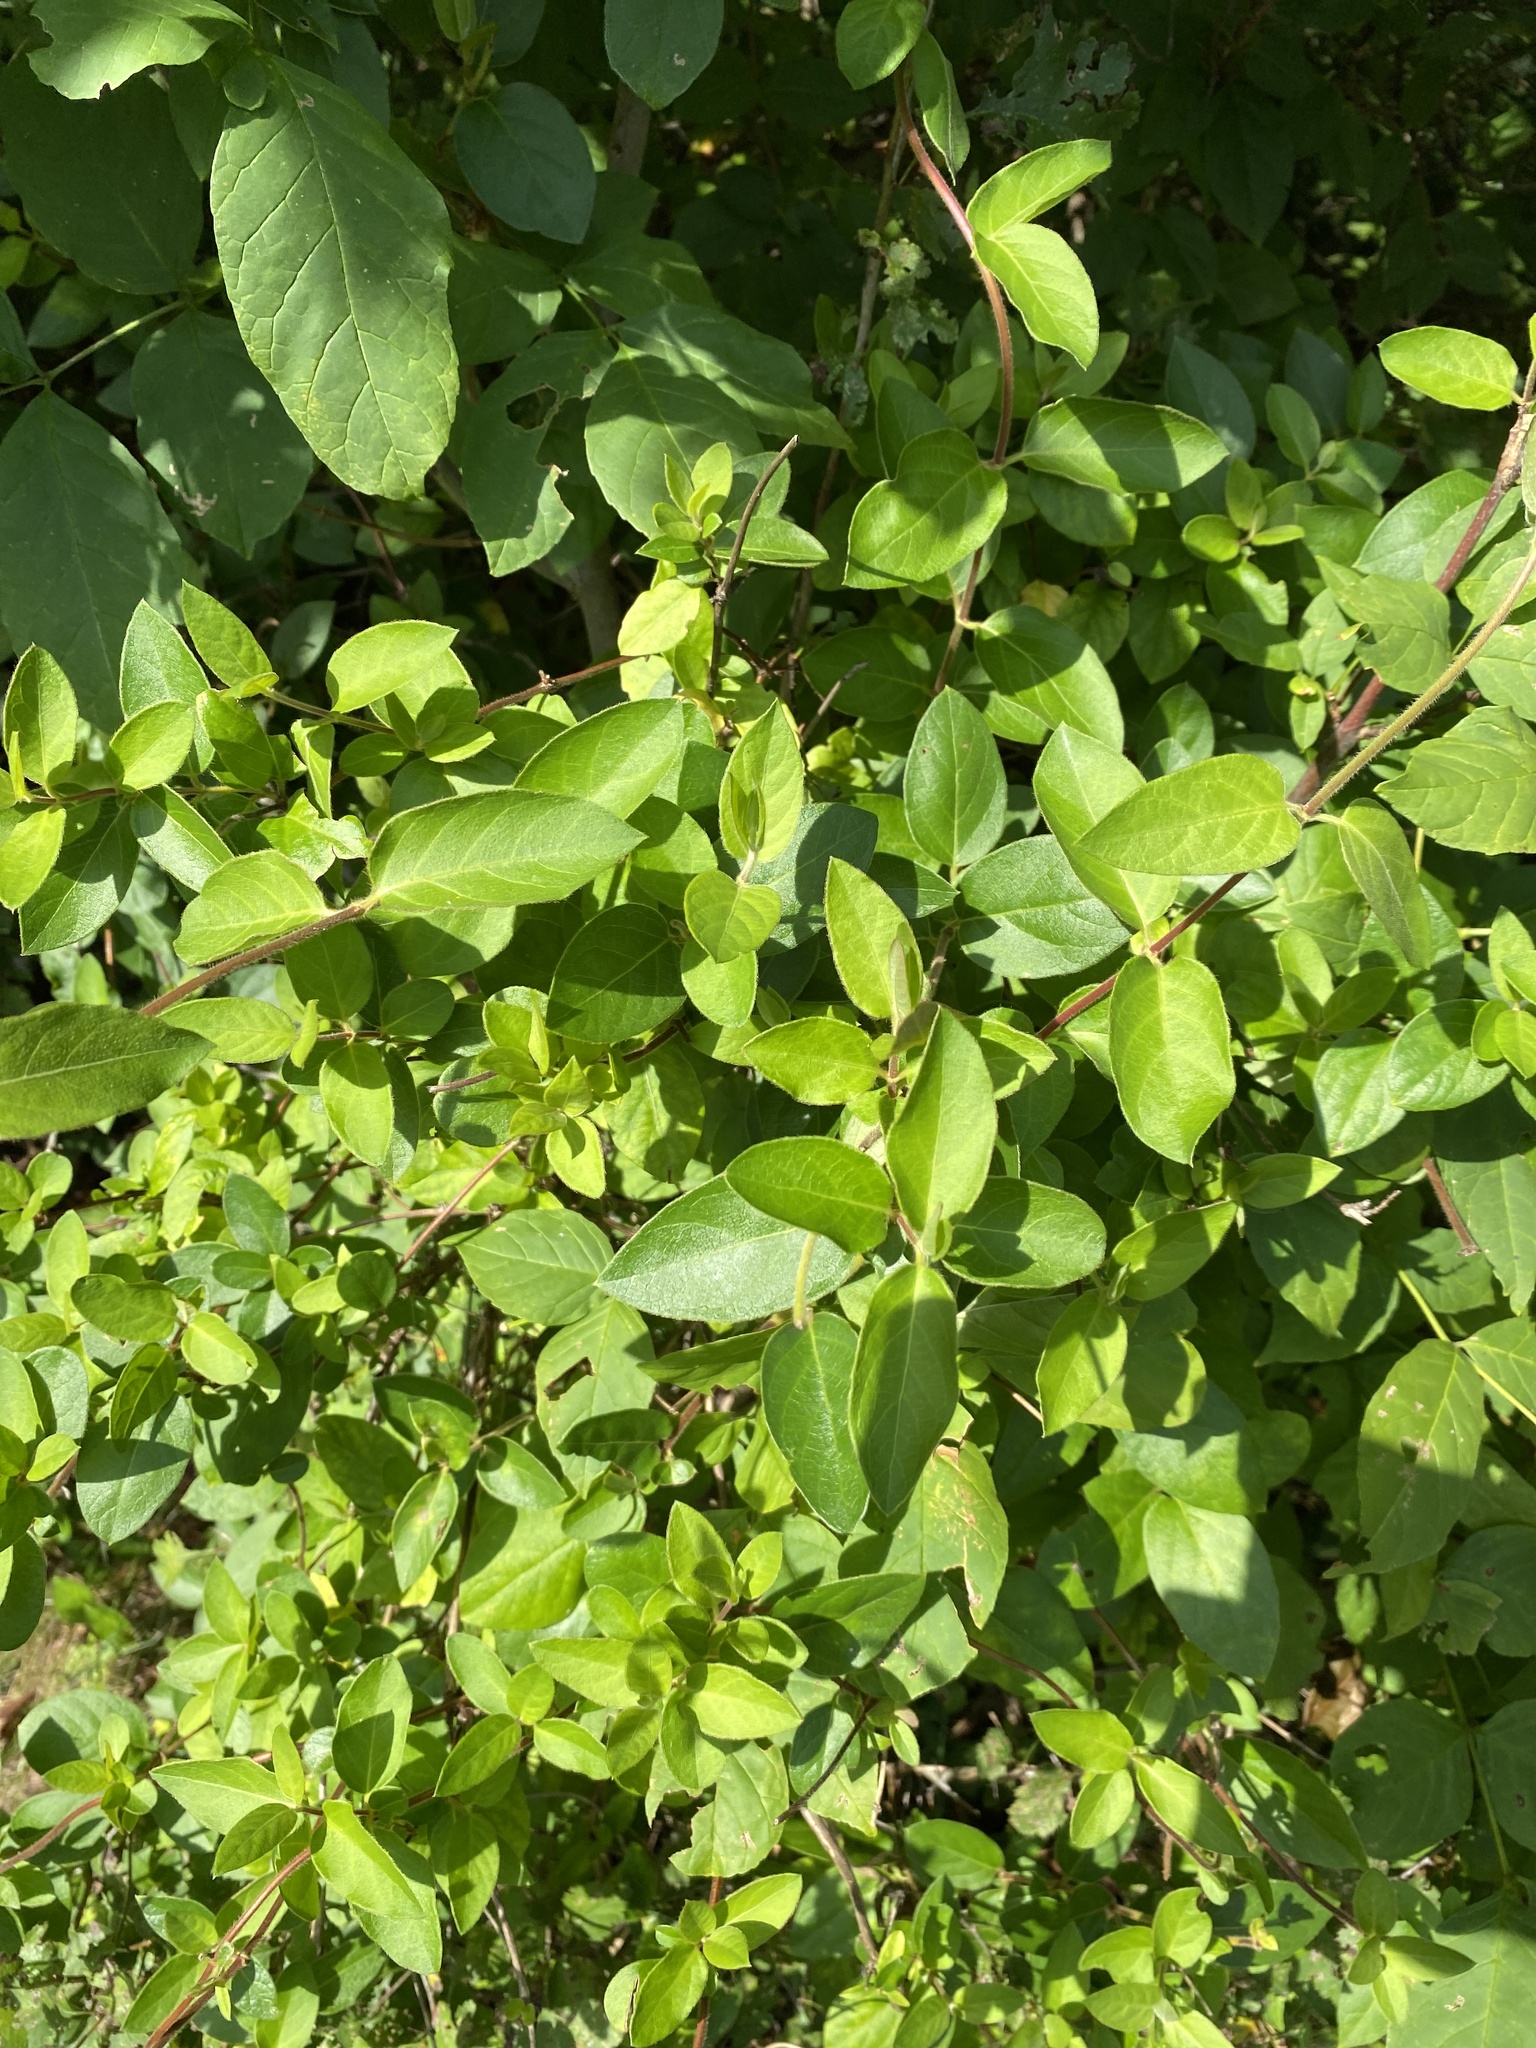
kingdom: Plantae
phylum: Tracheophyta
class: Magnoliopsida
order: Dipsacales
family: Caprifoliaceae
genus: Lonicera
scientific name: Lonicera japonica
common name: Japanese honeysuckle
